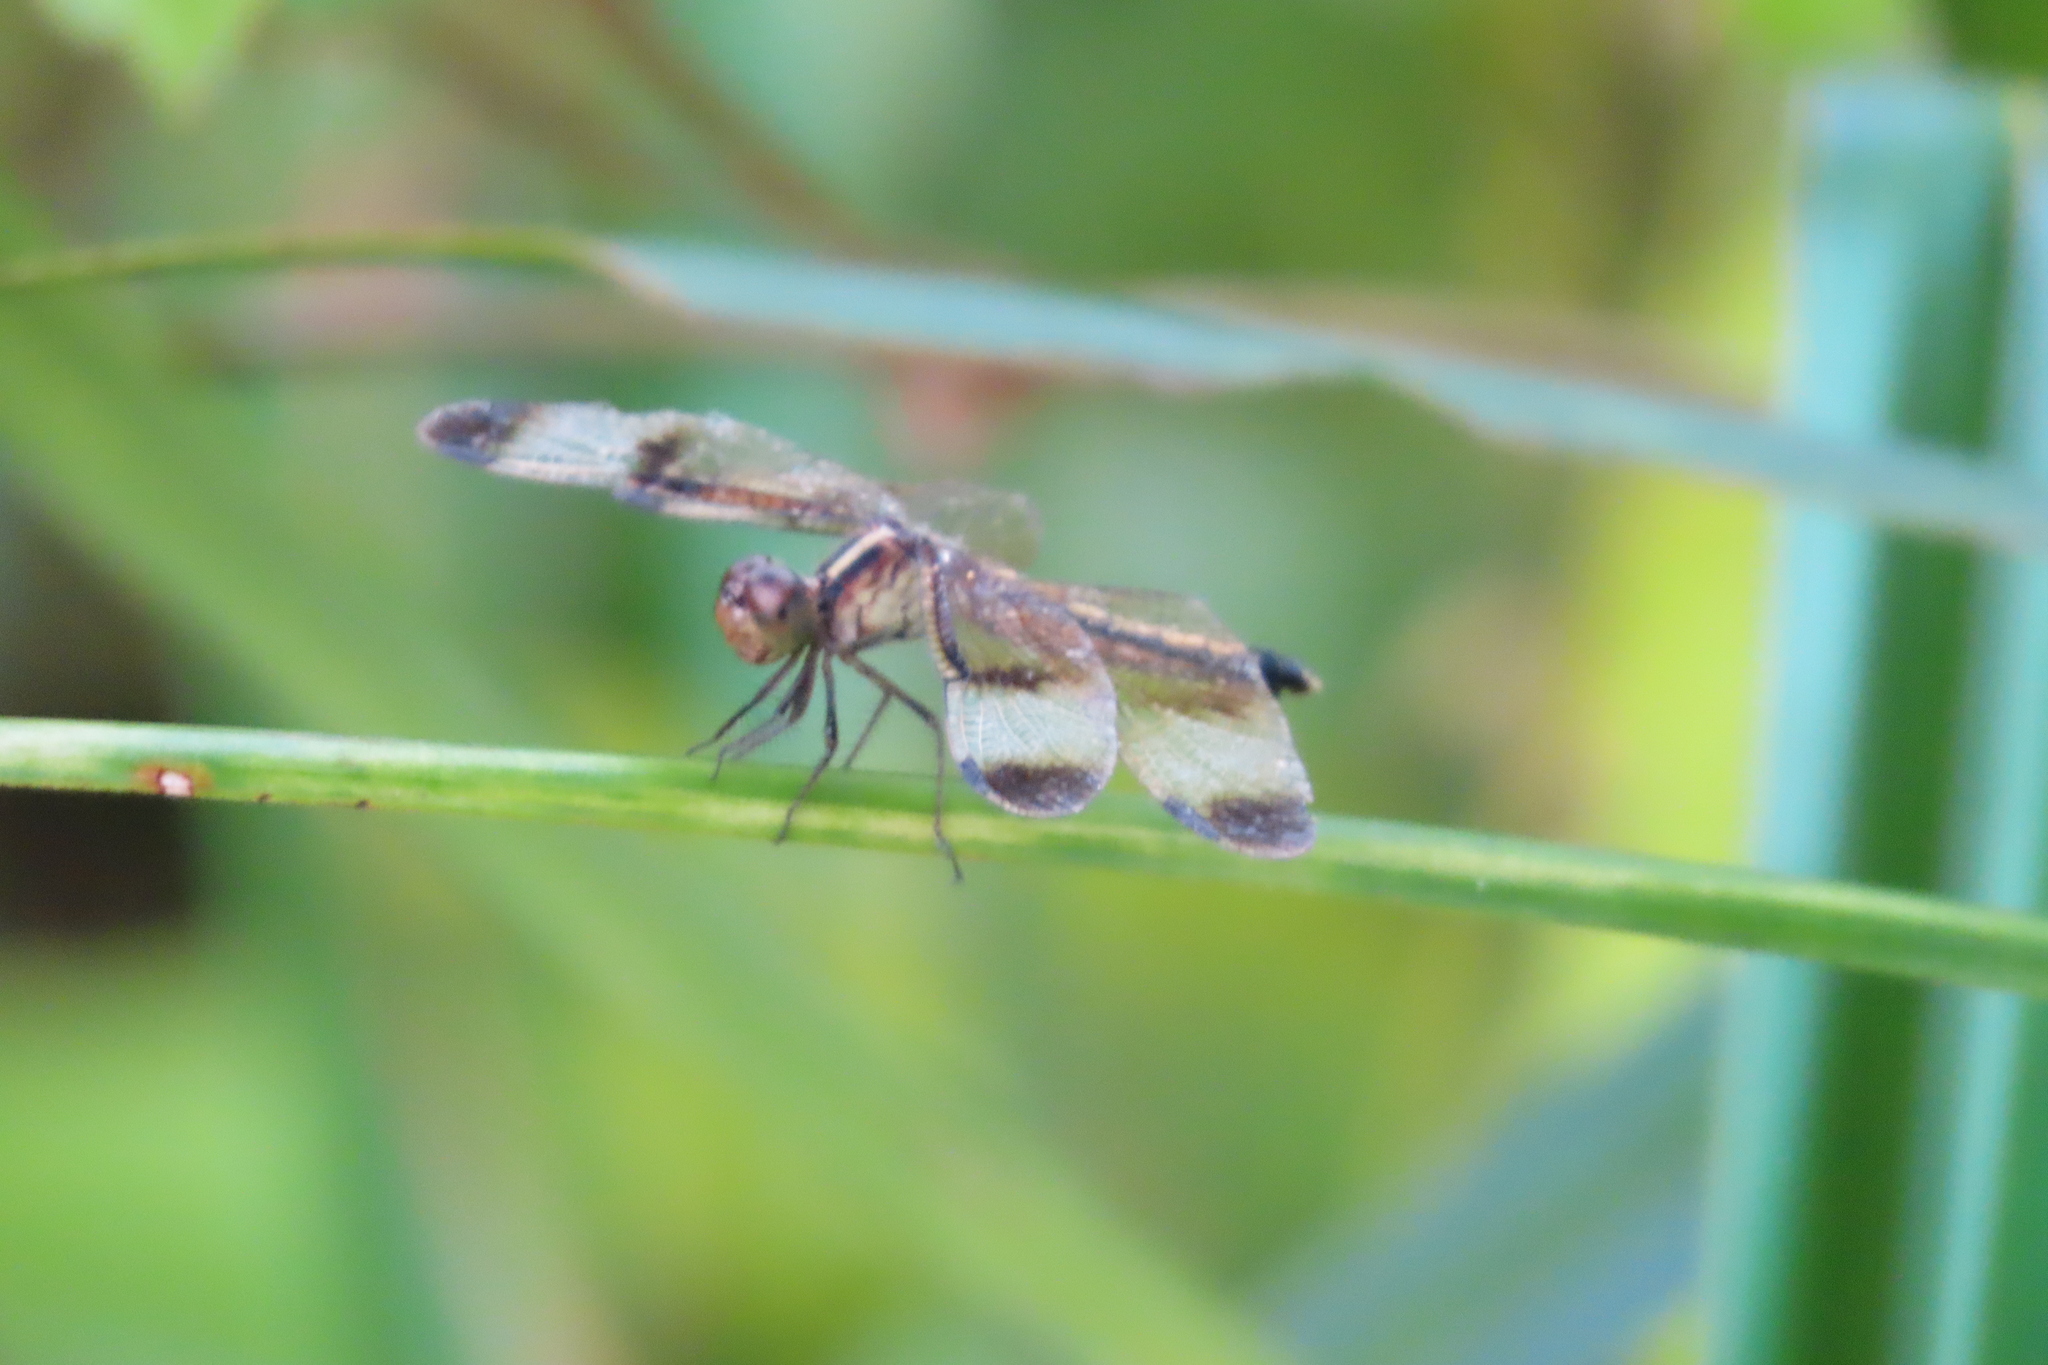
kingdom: Animalia
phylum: Arthropoda
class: Insecta
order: Odonata
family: Libellulidae
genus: Neurothemis
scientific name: Neurothemis tullia
